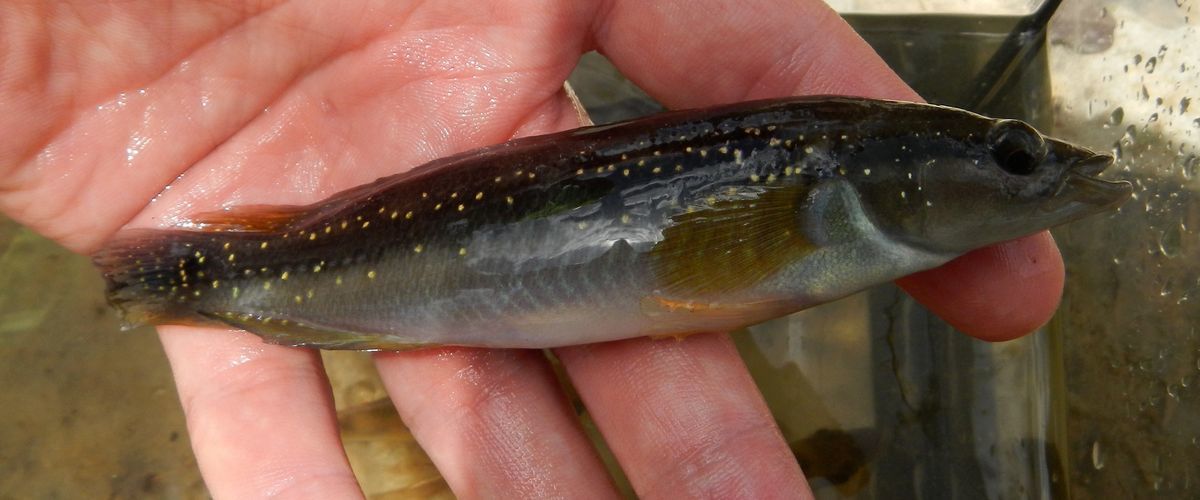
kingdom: Animalia
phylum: Chordata
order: Perciformes
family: Cichlidae
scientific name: Cichlidae
